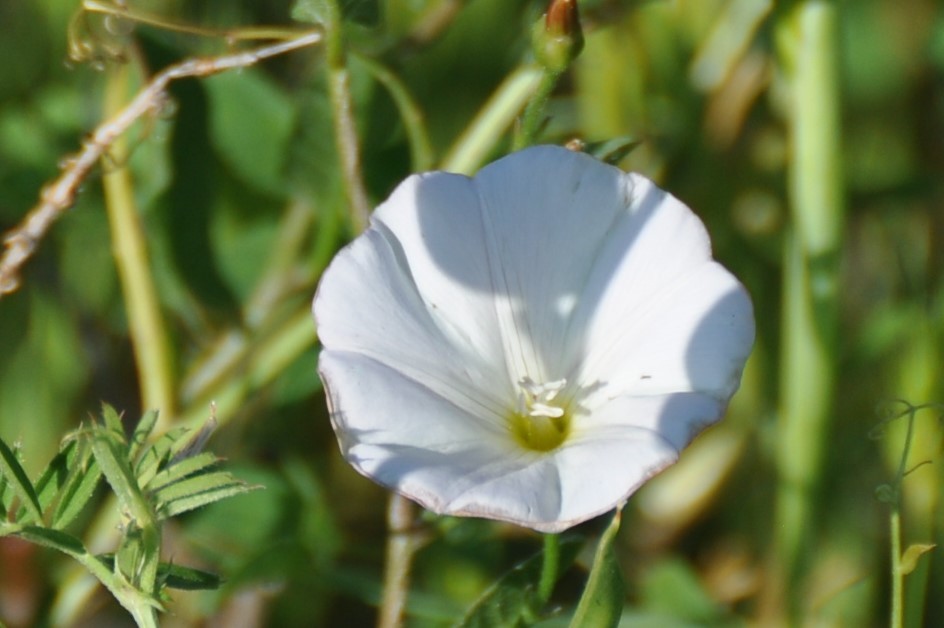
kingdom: Plantae
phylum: Tracheophyta
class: Magnoliopsida
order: Solanales
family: Convolvulaceae
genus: Convolvulus
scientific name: Convolvulus arvensis
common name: Field bindweed
